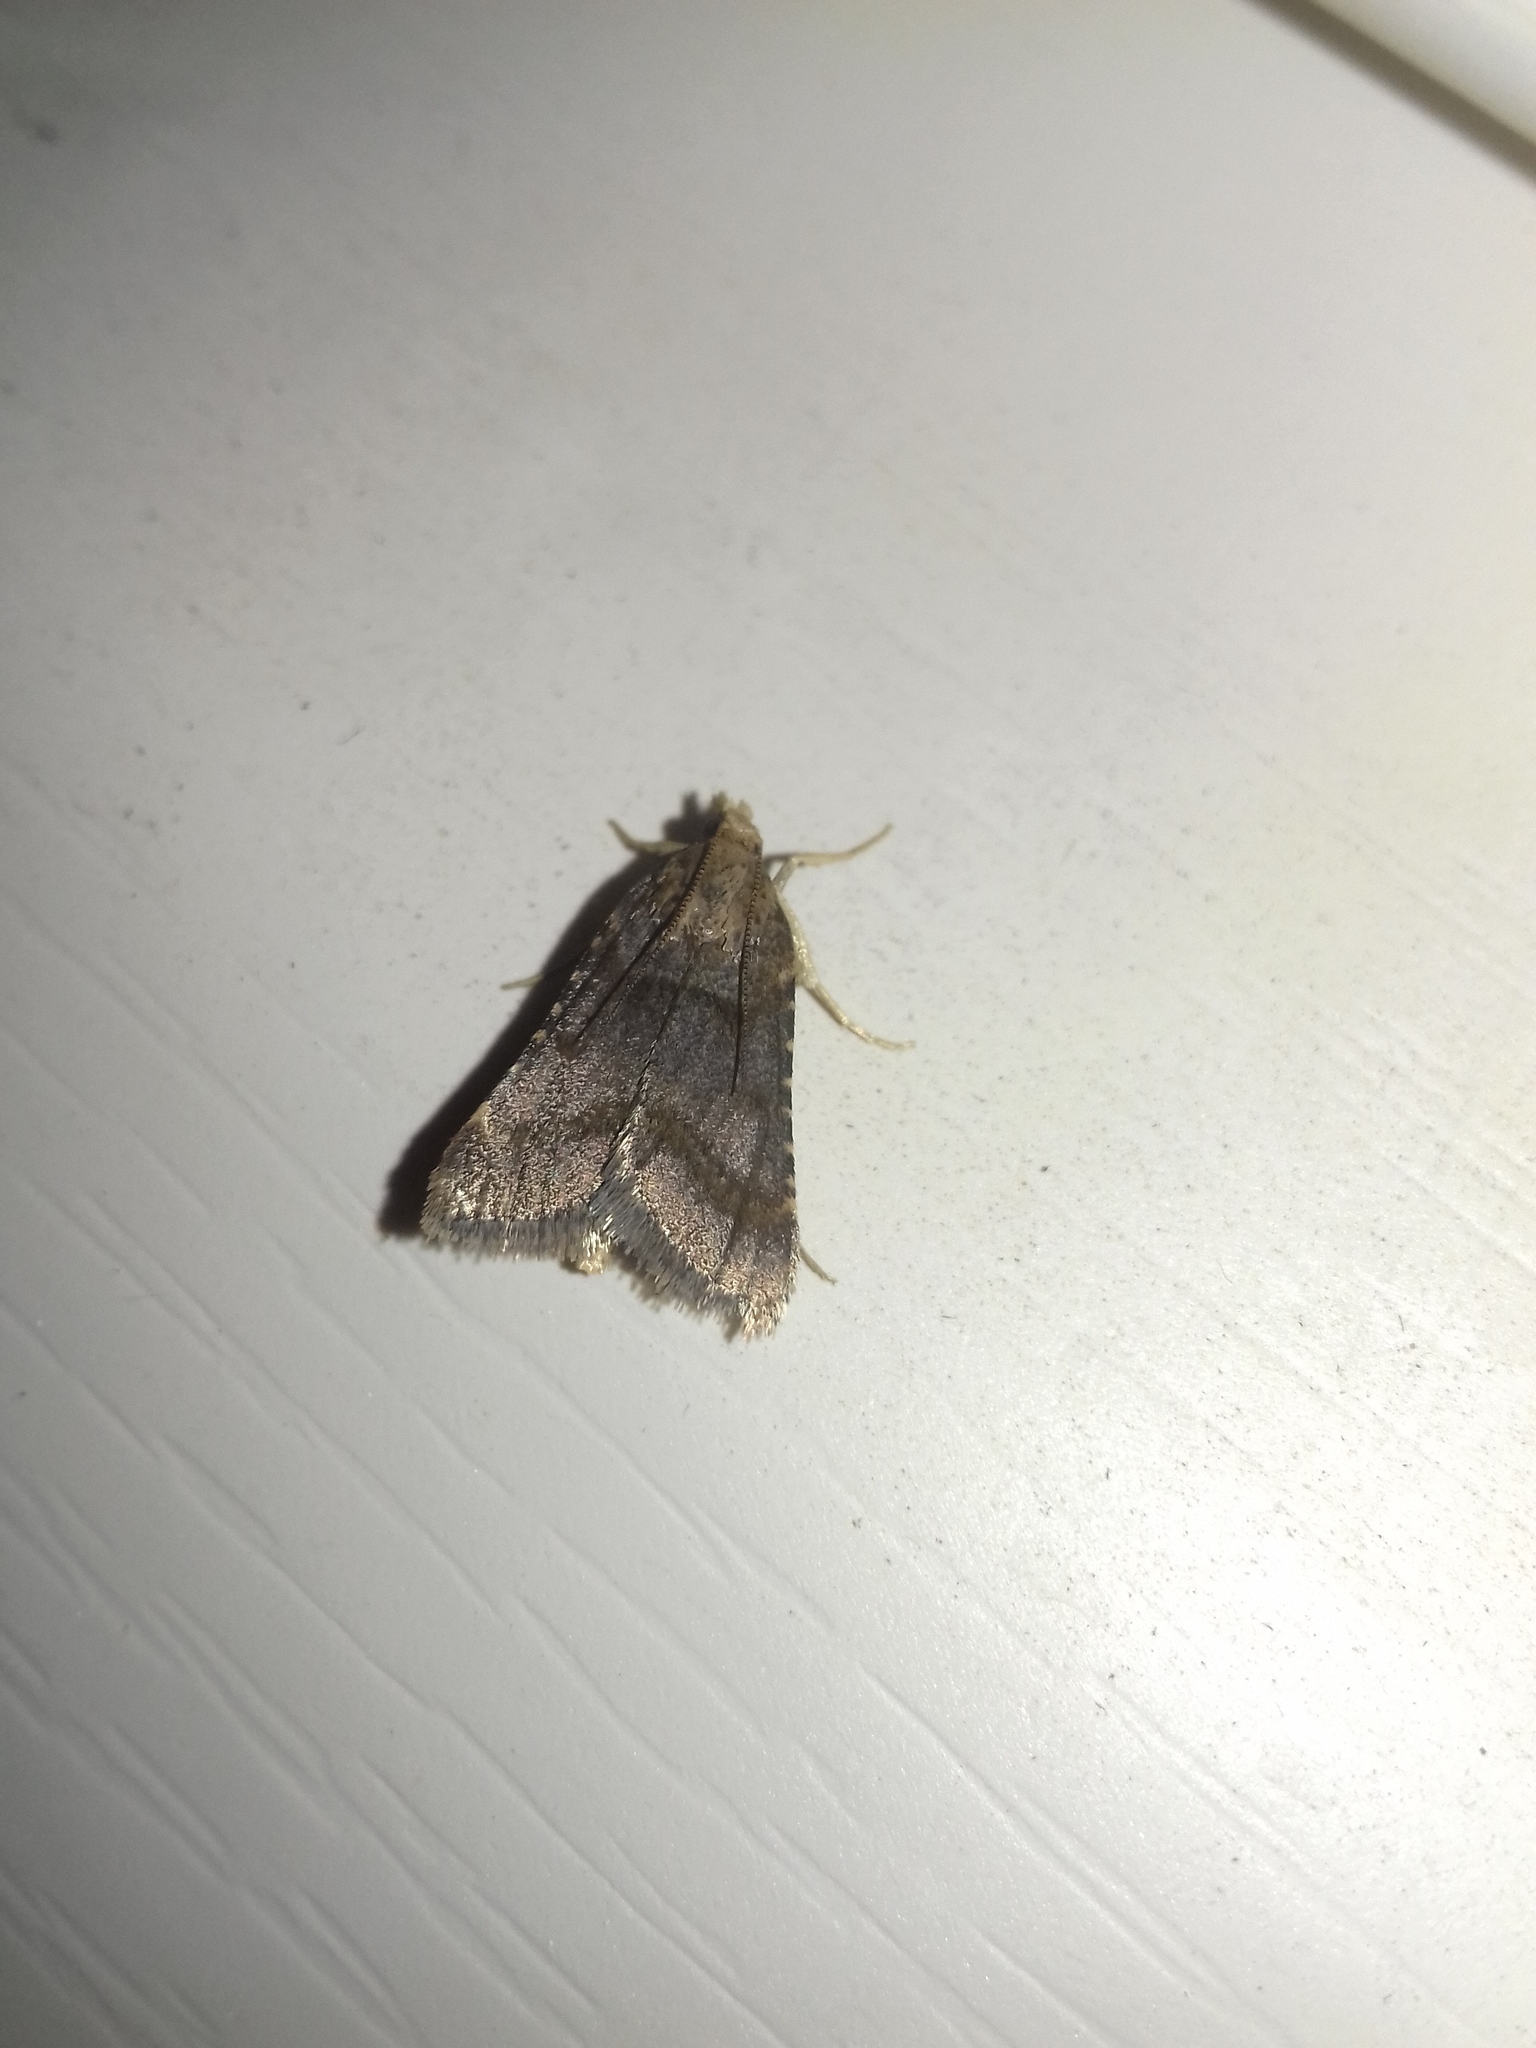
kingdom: Animalia
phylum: Arthropoda
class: Insecta
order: Lepidoptera
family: Pyralidae
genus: Stemmatophora
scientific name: Stemmatophora brunnealis
